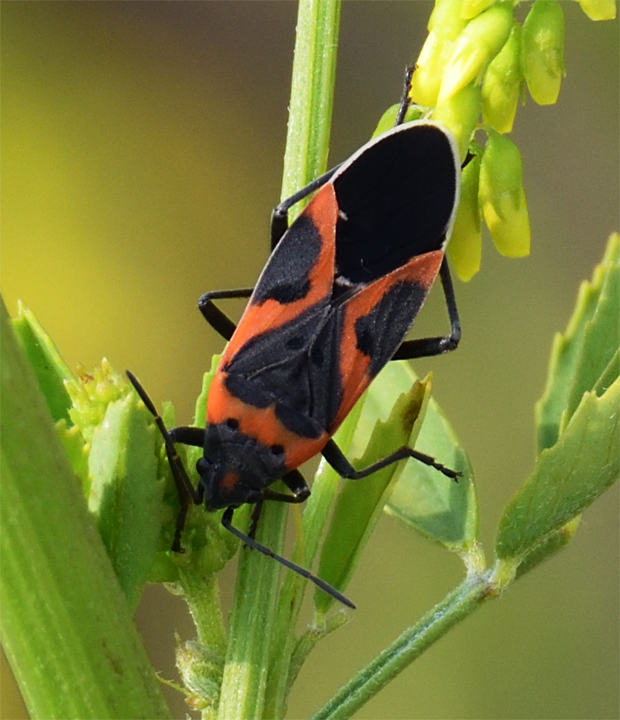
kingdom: Animalia
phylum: Arthropoda
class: Insecta
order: Hemiptera
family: Lygaeidae
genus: Lygaeus
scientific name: Lygaeus kalmii
